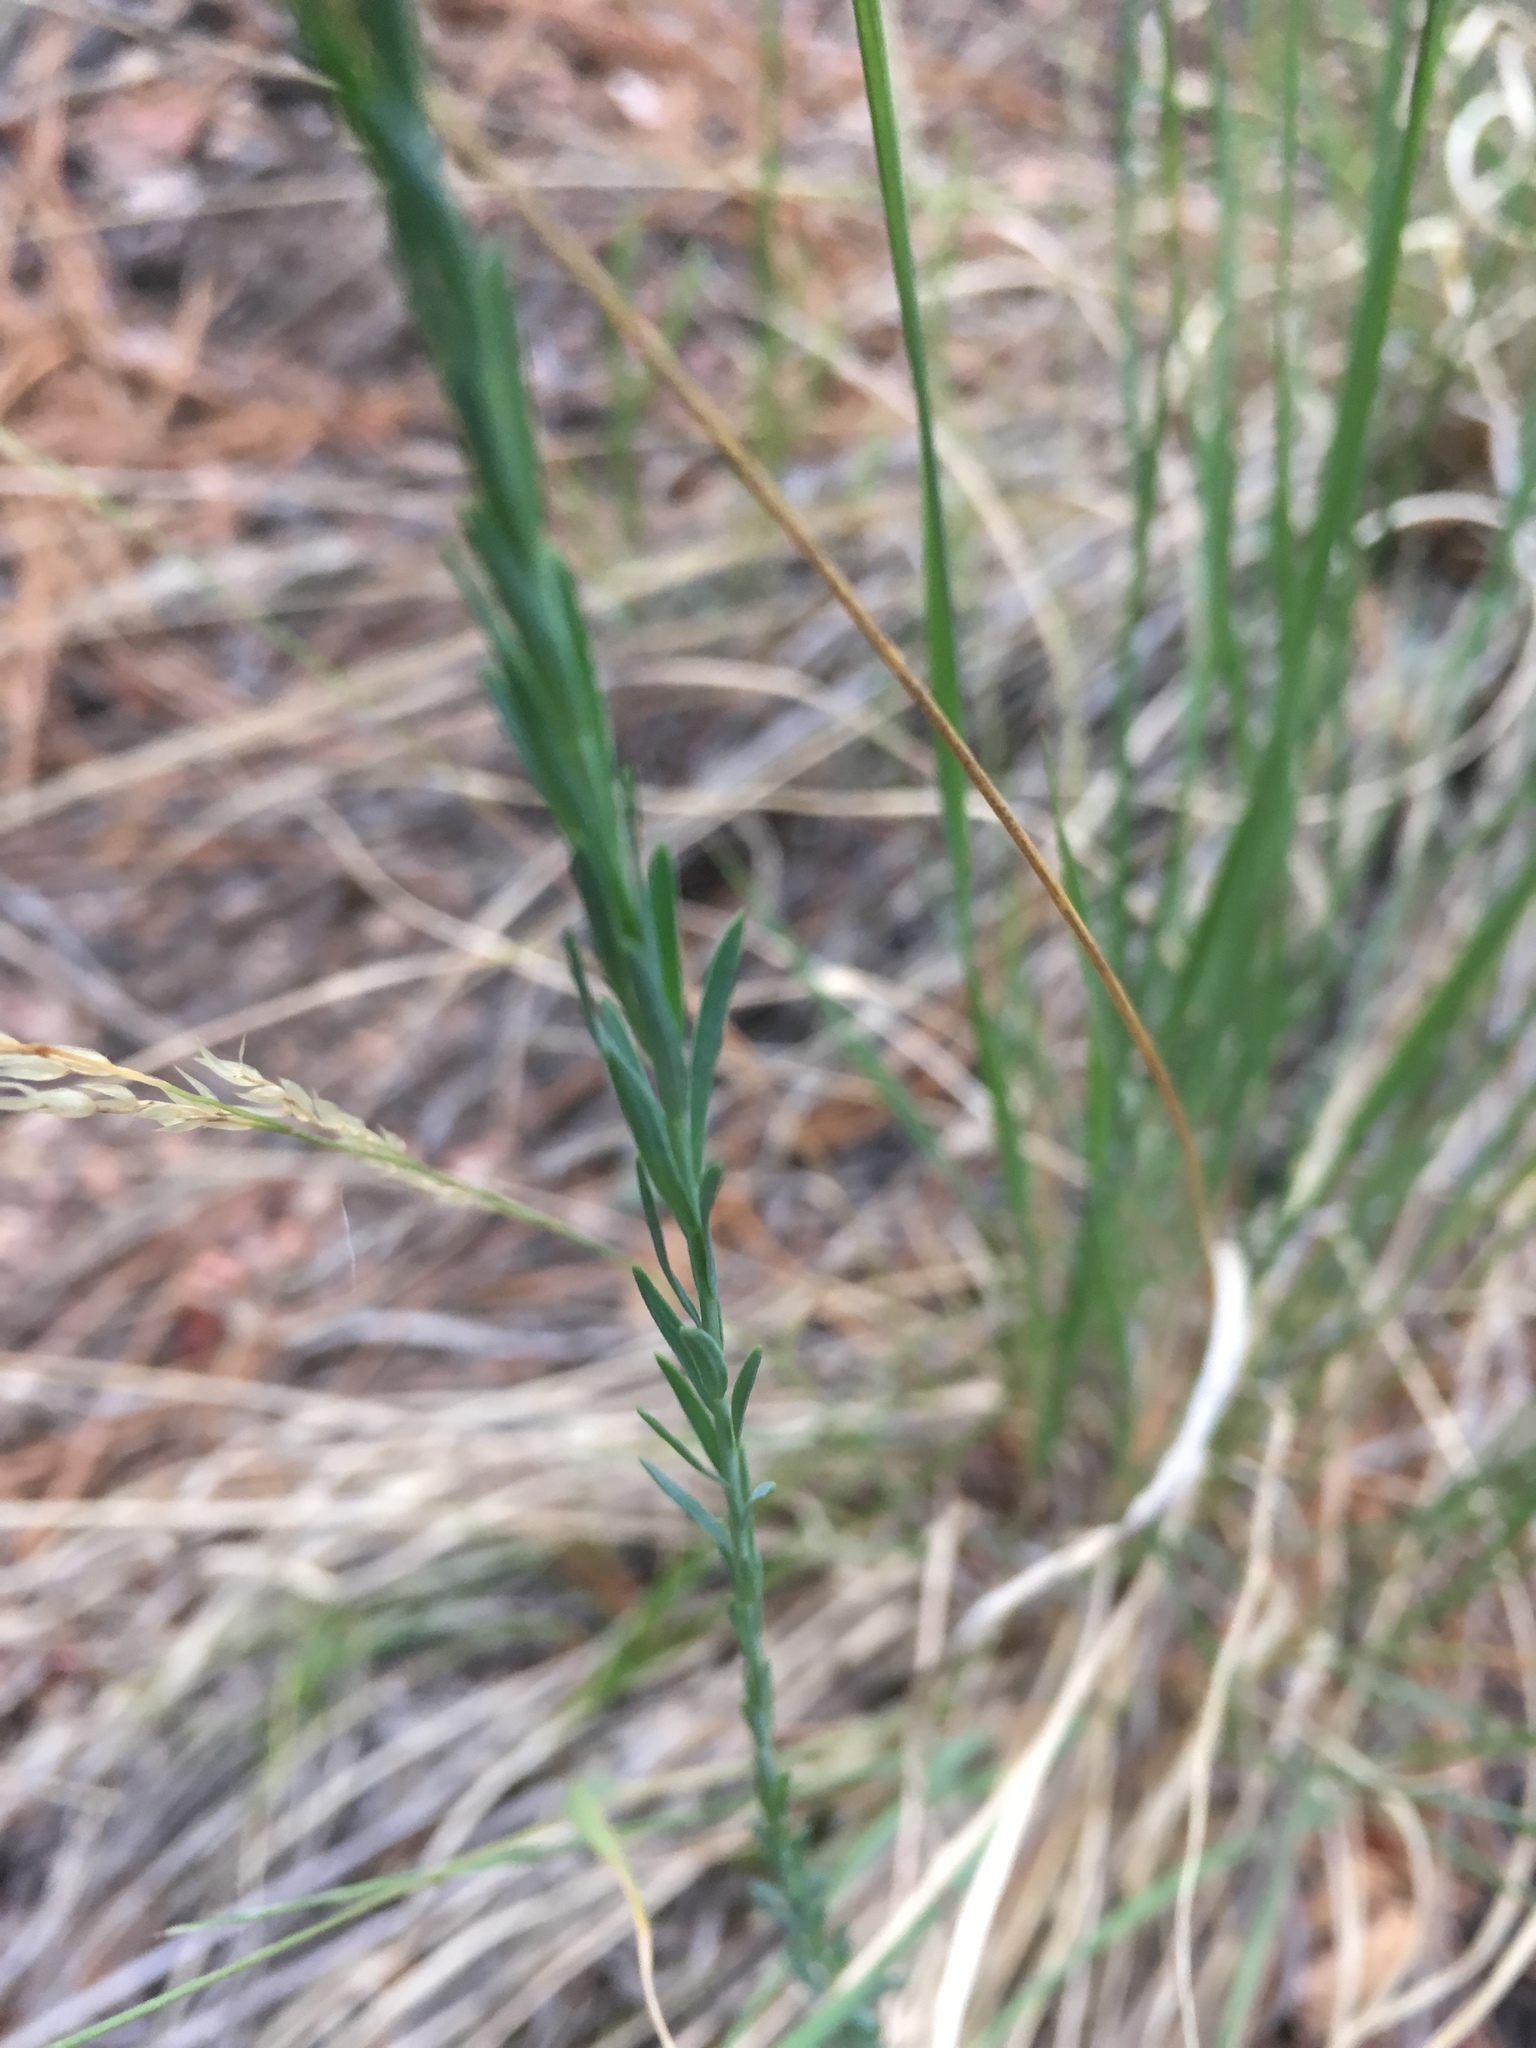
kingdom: Plantae
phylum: Tracheophyta
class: Magnoliopsida
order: Malpighiales
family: Linaceae
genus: Linum
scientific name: Linum lewisii
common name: Prairie flax
